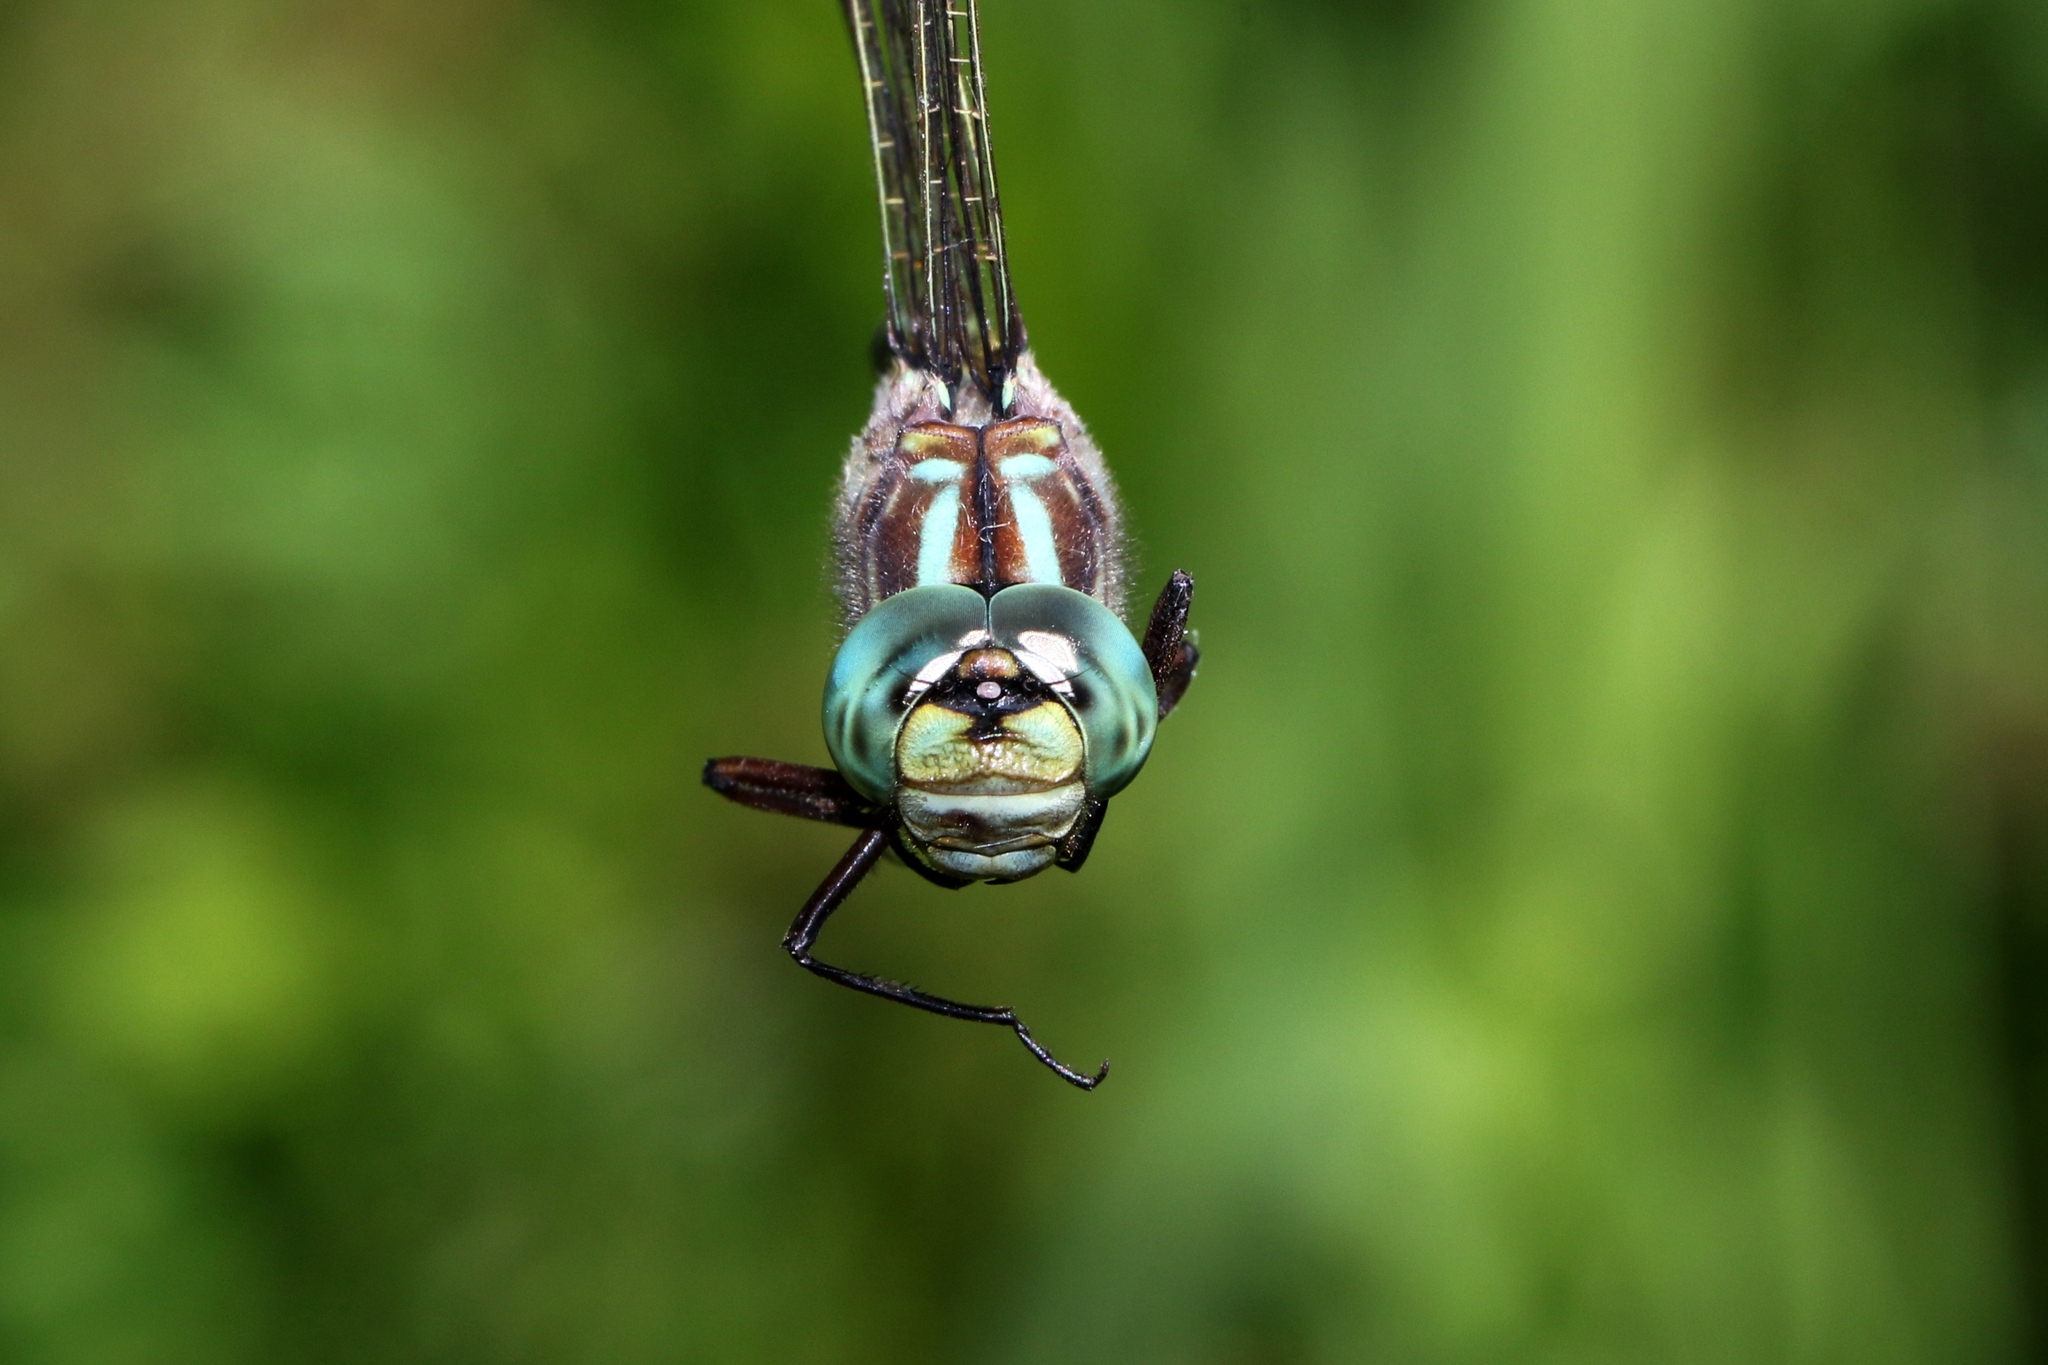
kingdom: Animalia
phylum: Arthropoda
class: Insecta
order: Odonata
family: Aeshnidae
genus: Gomphaeschna
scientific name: Gomphaeschna furcillata
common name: Harlequin darner
